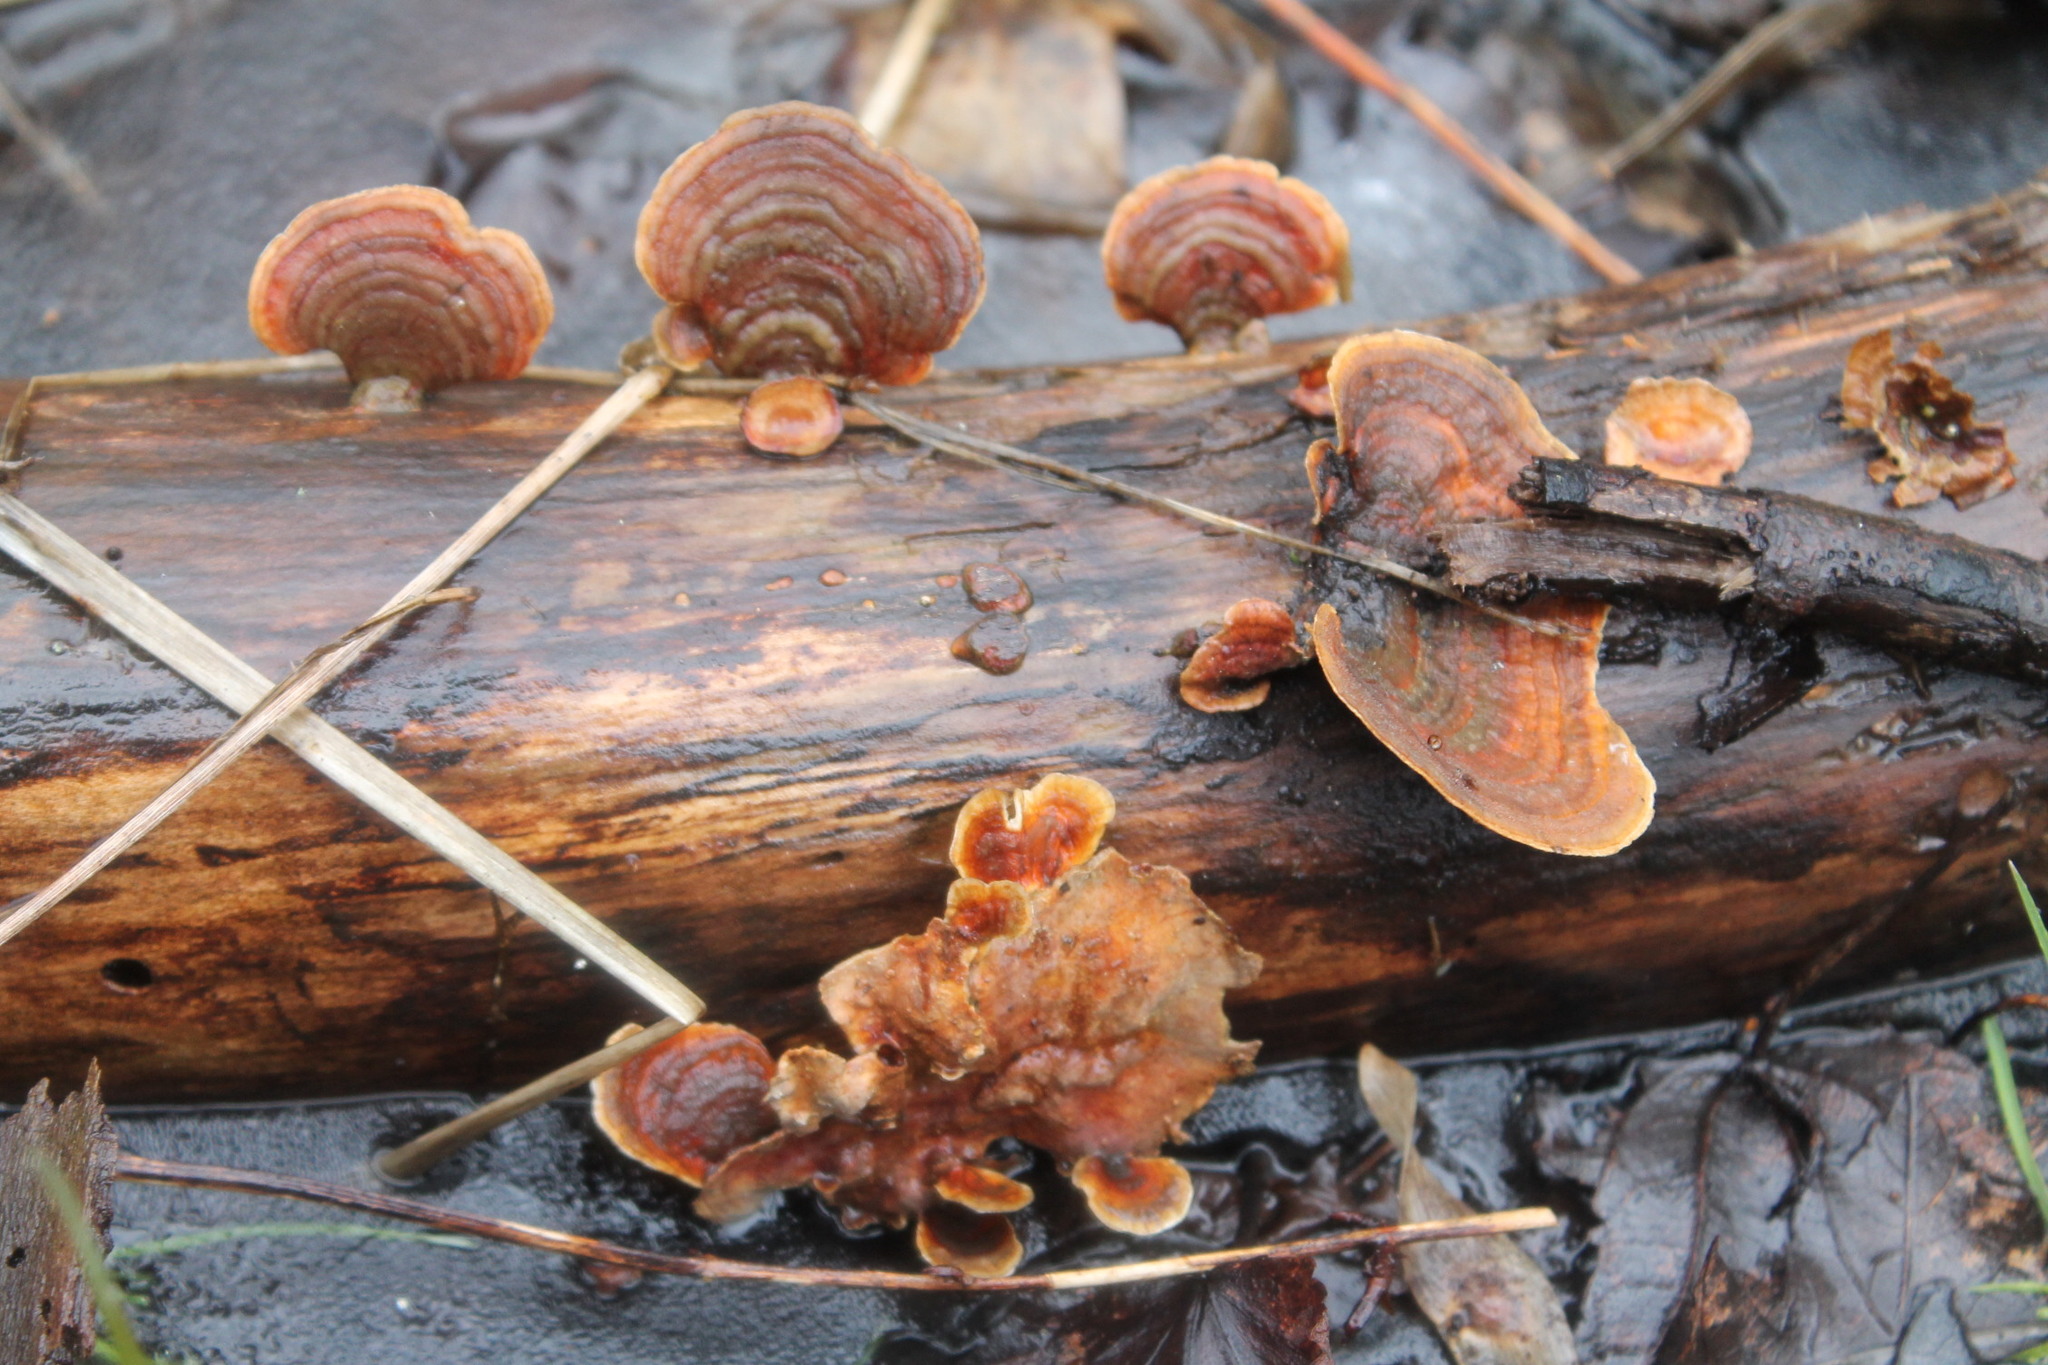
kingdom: Fungi
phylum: Basidiomycota
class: Agaricomycetes
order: Russulales
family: Stereaceae
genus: Stereum
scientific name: Stereum lobatum
